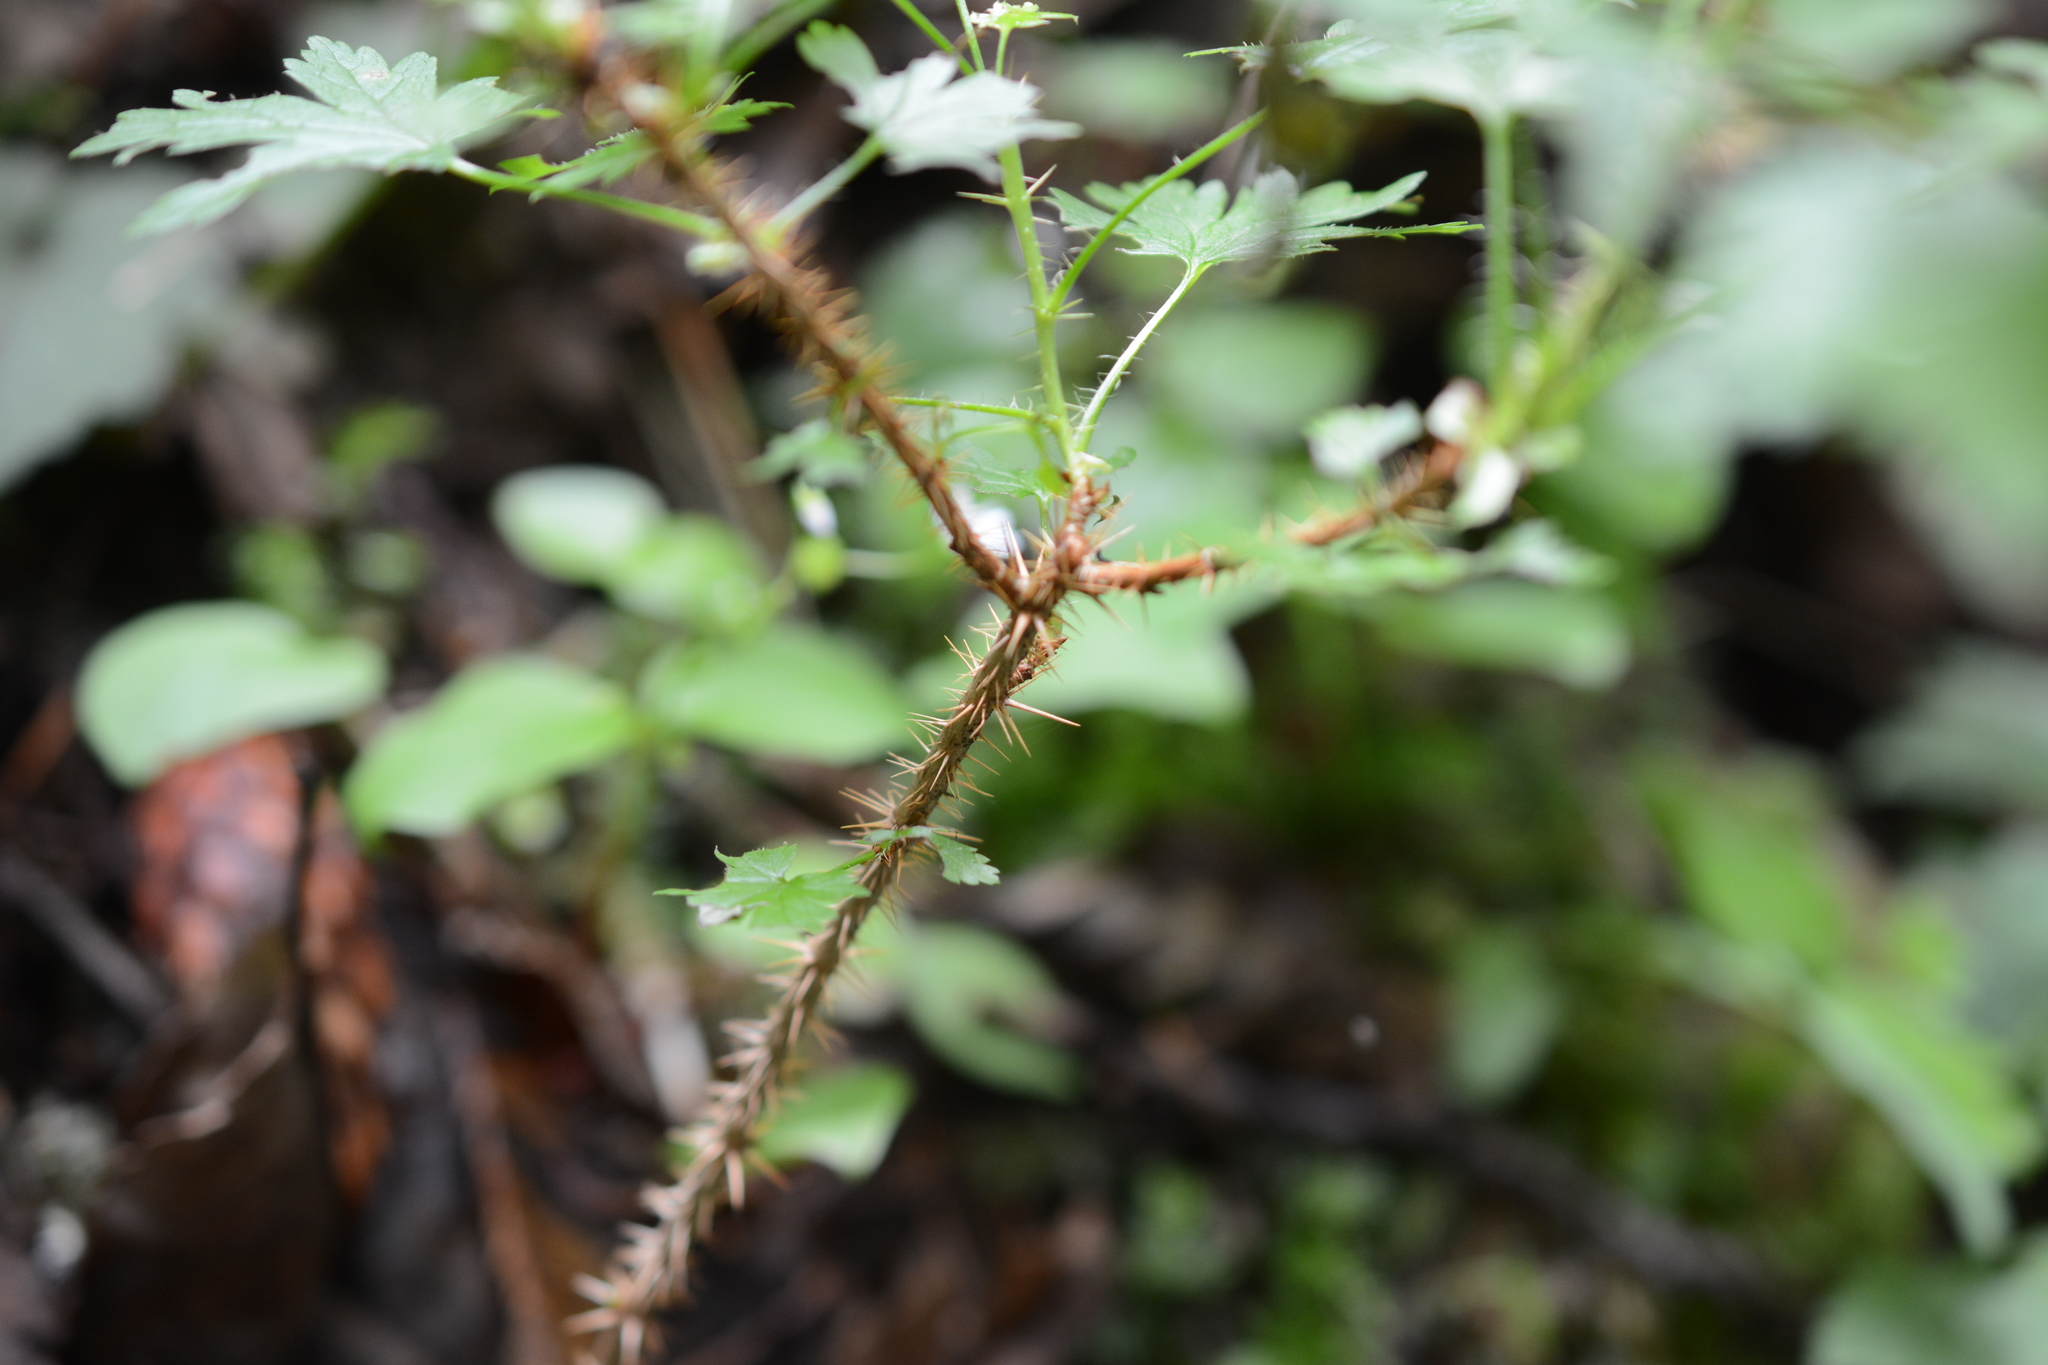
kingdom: Plantae
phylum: Tracheophyta
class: Magnoliopsida
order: Saxifragales
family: Grossulariaceae
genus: Ribes
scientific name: Ribes lacustre
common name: Black gooseberry
